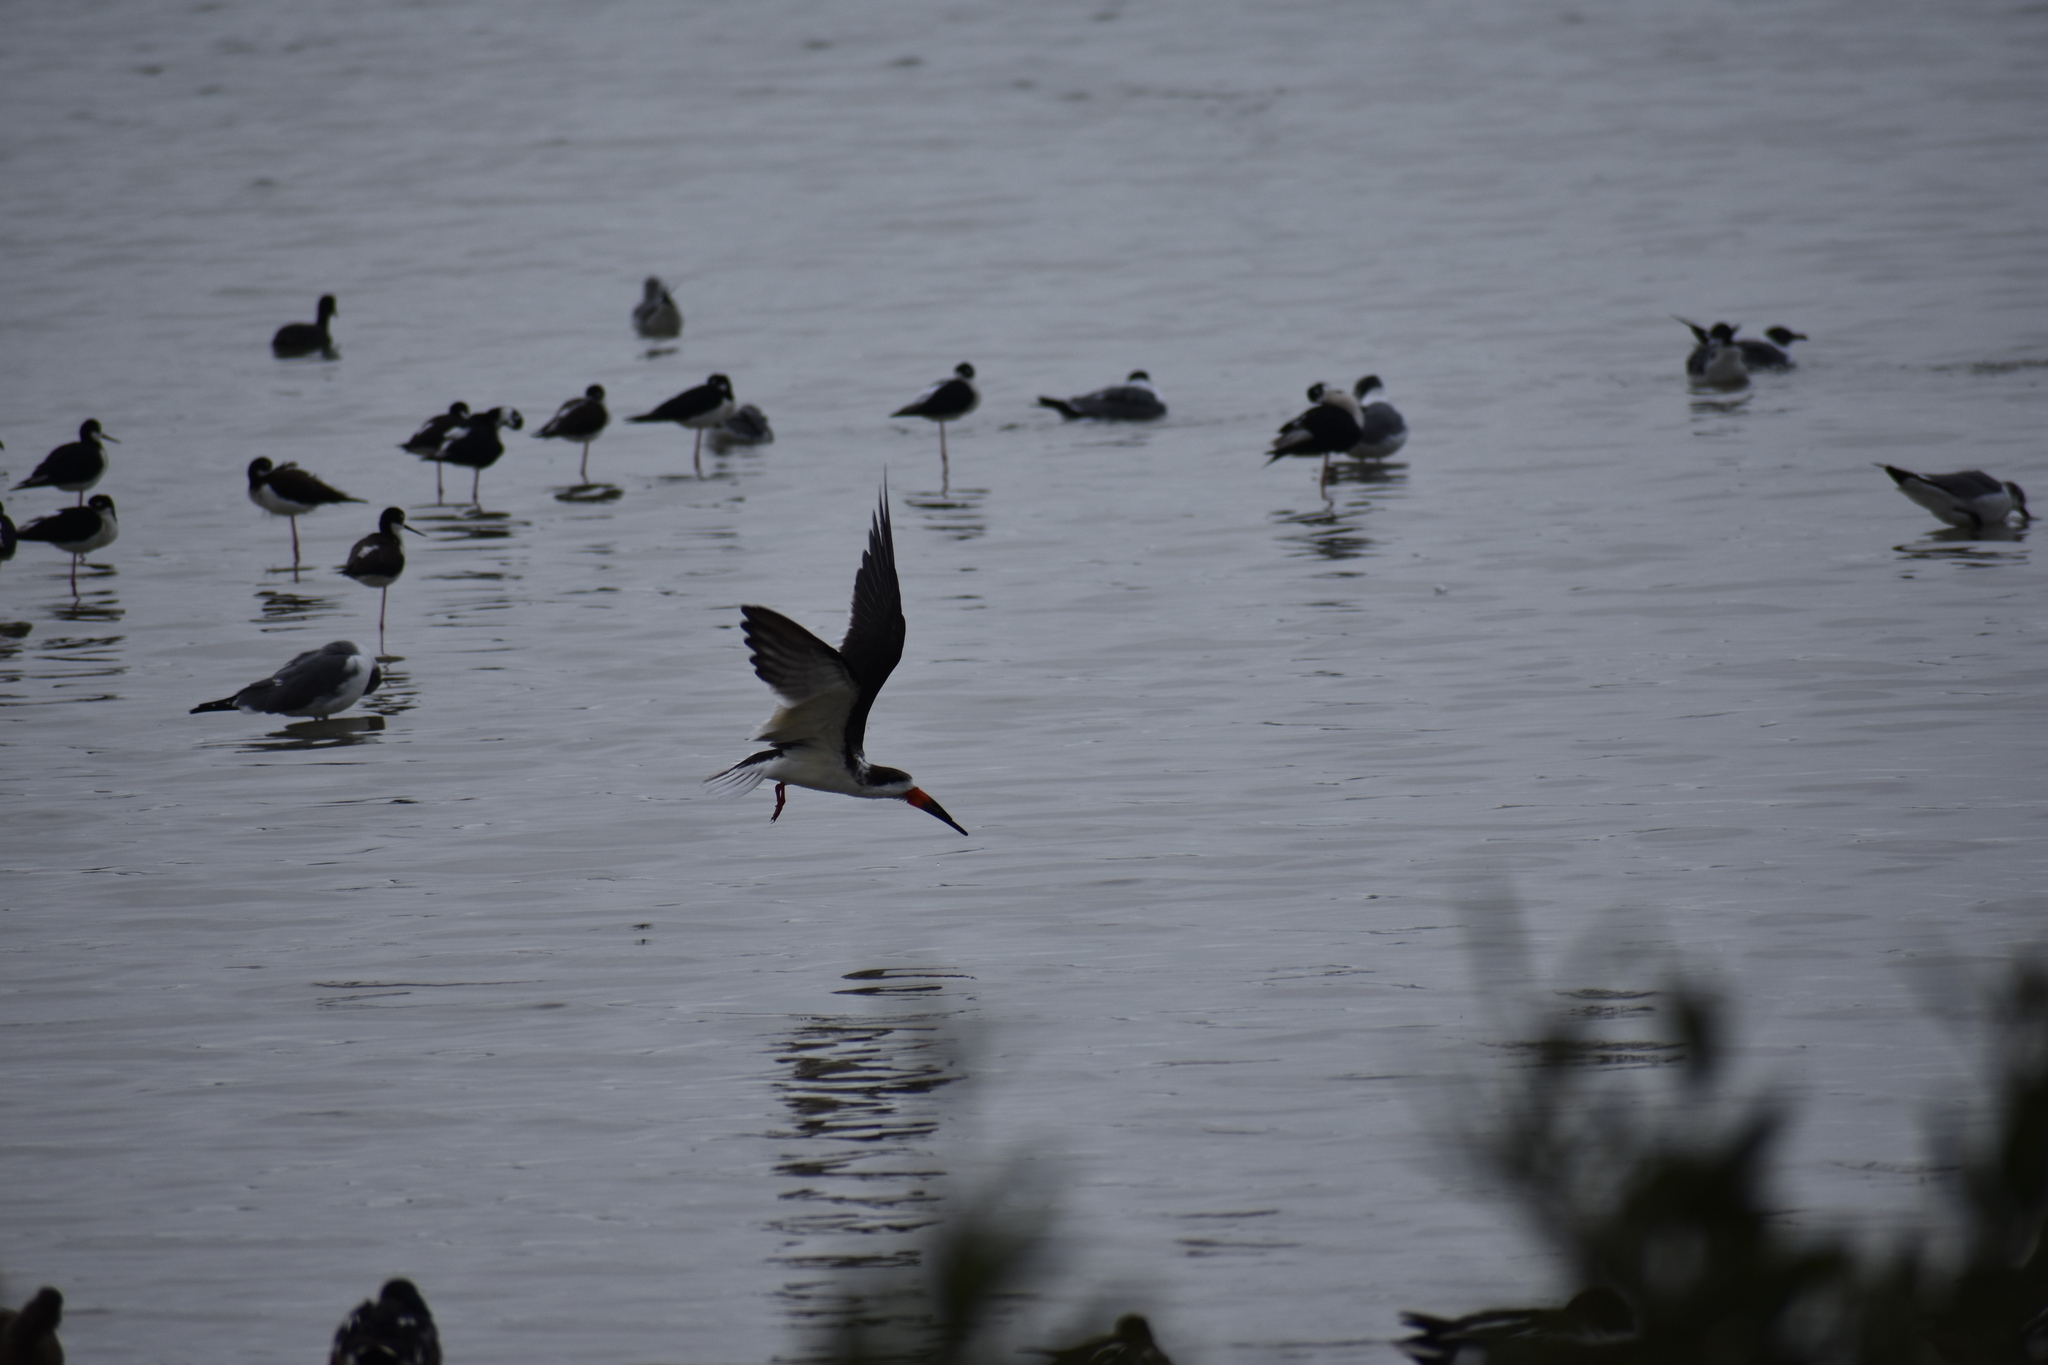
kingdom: Animalia
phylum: Chordata
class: Aves
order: Charadriiformes
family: Laridae
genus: Rynchops
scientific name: Rynchops niger
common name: Black skimmer
